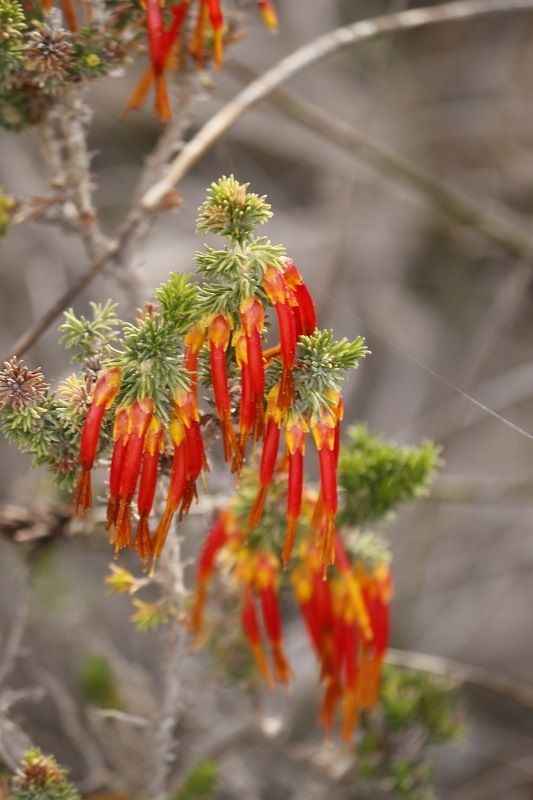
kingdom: Plantae
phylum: Tracheophyta
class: Magnoliopsida
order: Ericales
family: Ericaceae
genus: Erica
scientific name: Erica coccinea
